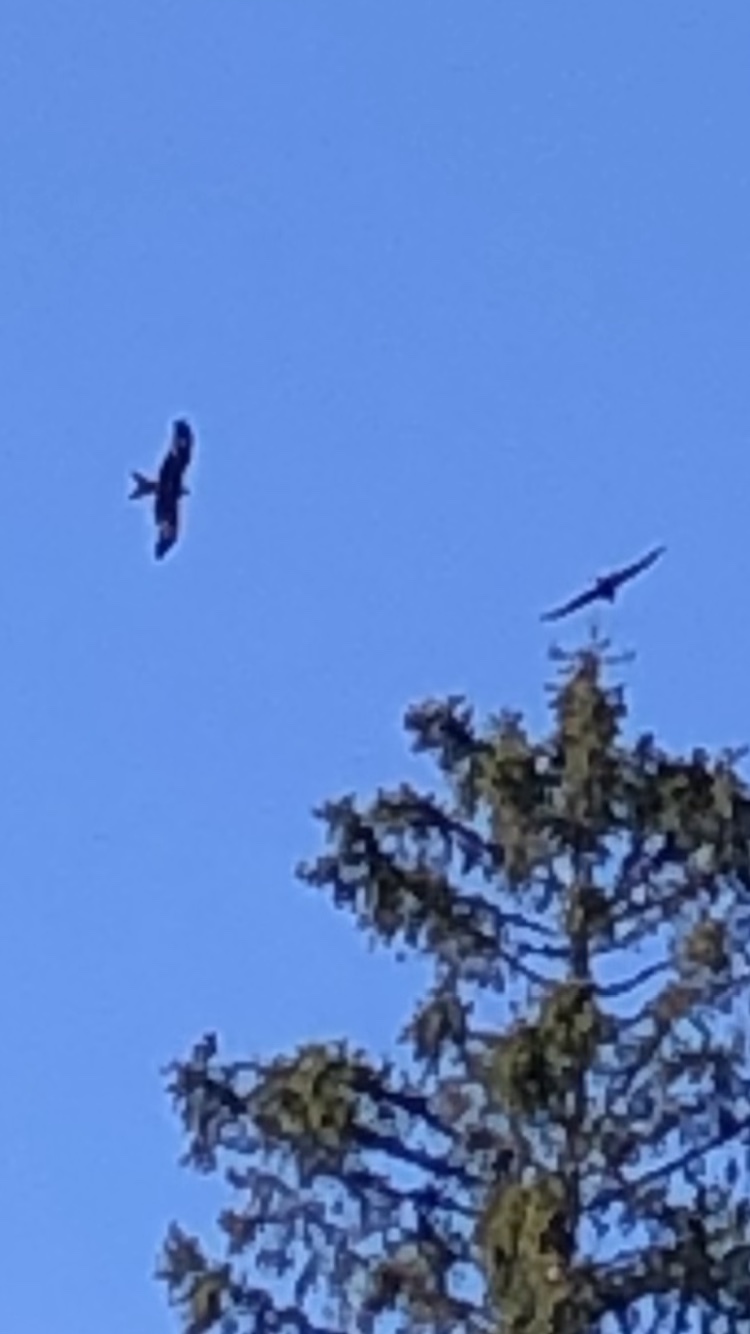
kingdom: Animalia
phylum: Chordata
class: Aves
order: Accipitriformes
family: Accipitridae
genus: Milvus
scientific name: Milvus milvus
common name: Red kite
